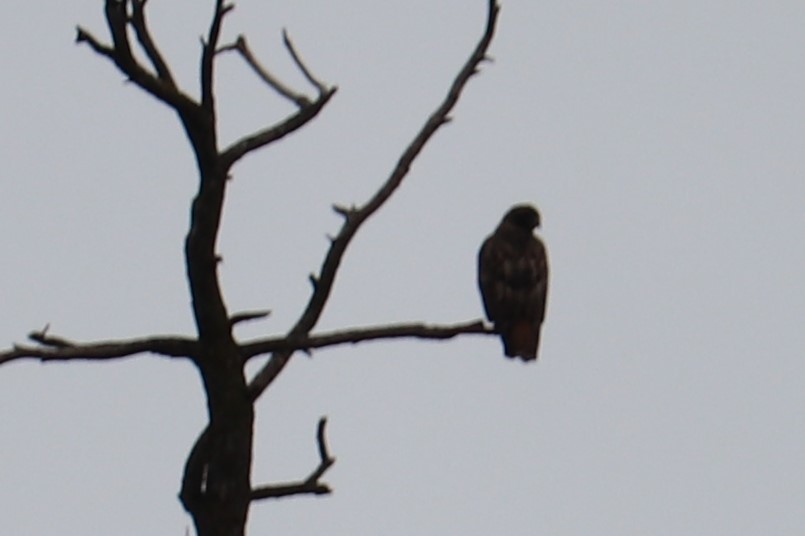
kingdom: Animalia
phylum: Chordata
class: Aves
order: Accipitriformes
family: Accipitridae
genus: Buteo
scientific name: Buteo jamaicensis
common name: Red-tailed hawk
